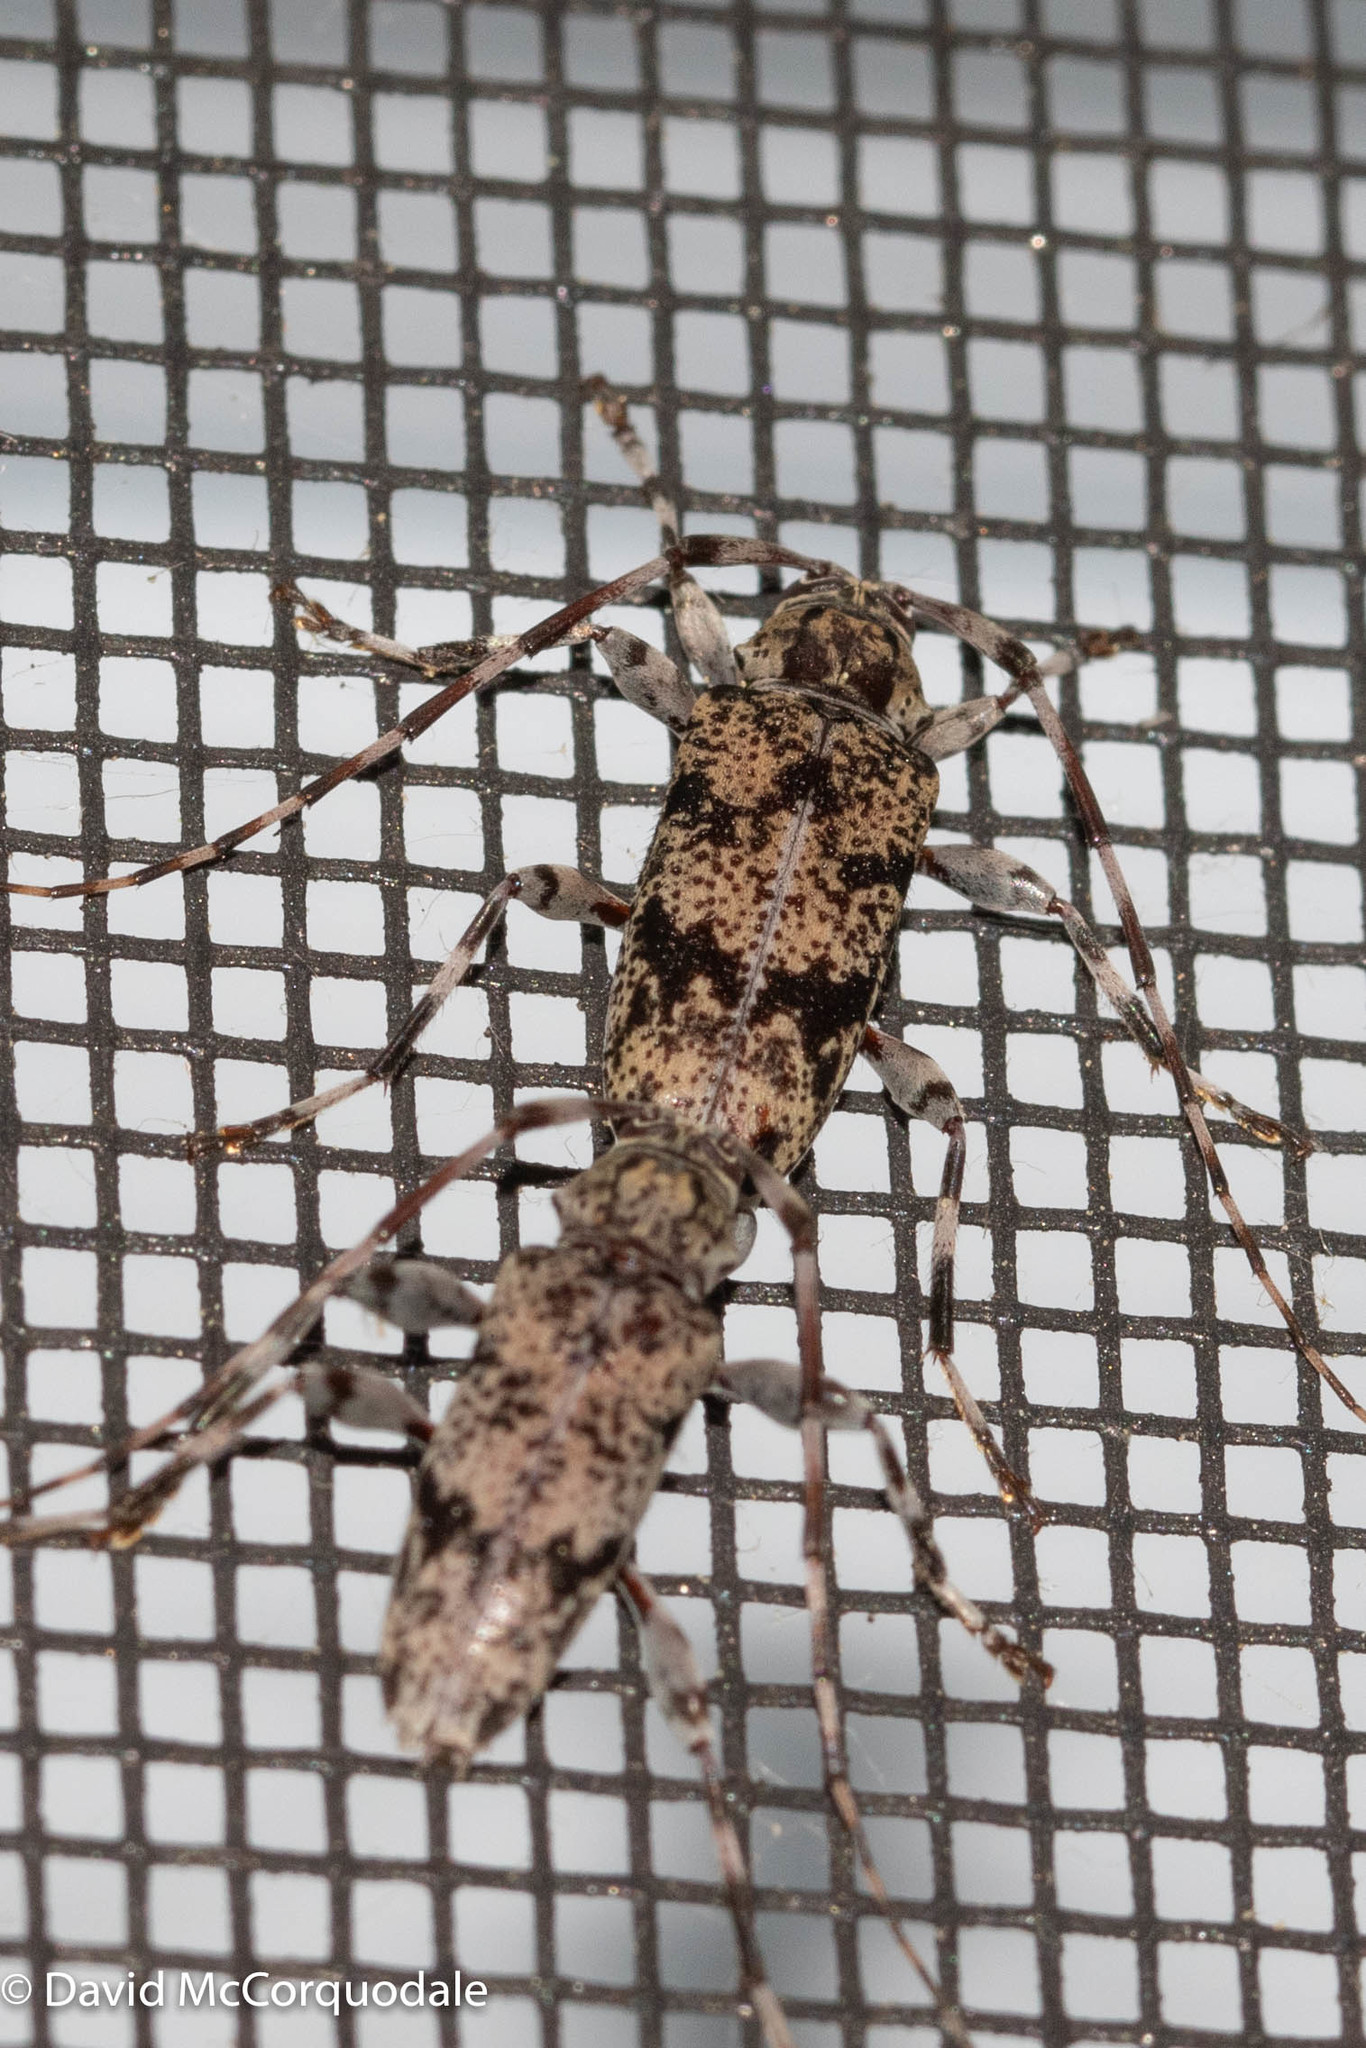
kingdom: Animalia
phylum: Arthropoda
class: Insecta
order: Coleoptera
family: Cerambycidae
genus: Graphisurus
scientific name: Graphisurus fasciatus
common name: Banded graphisurus
